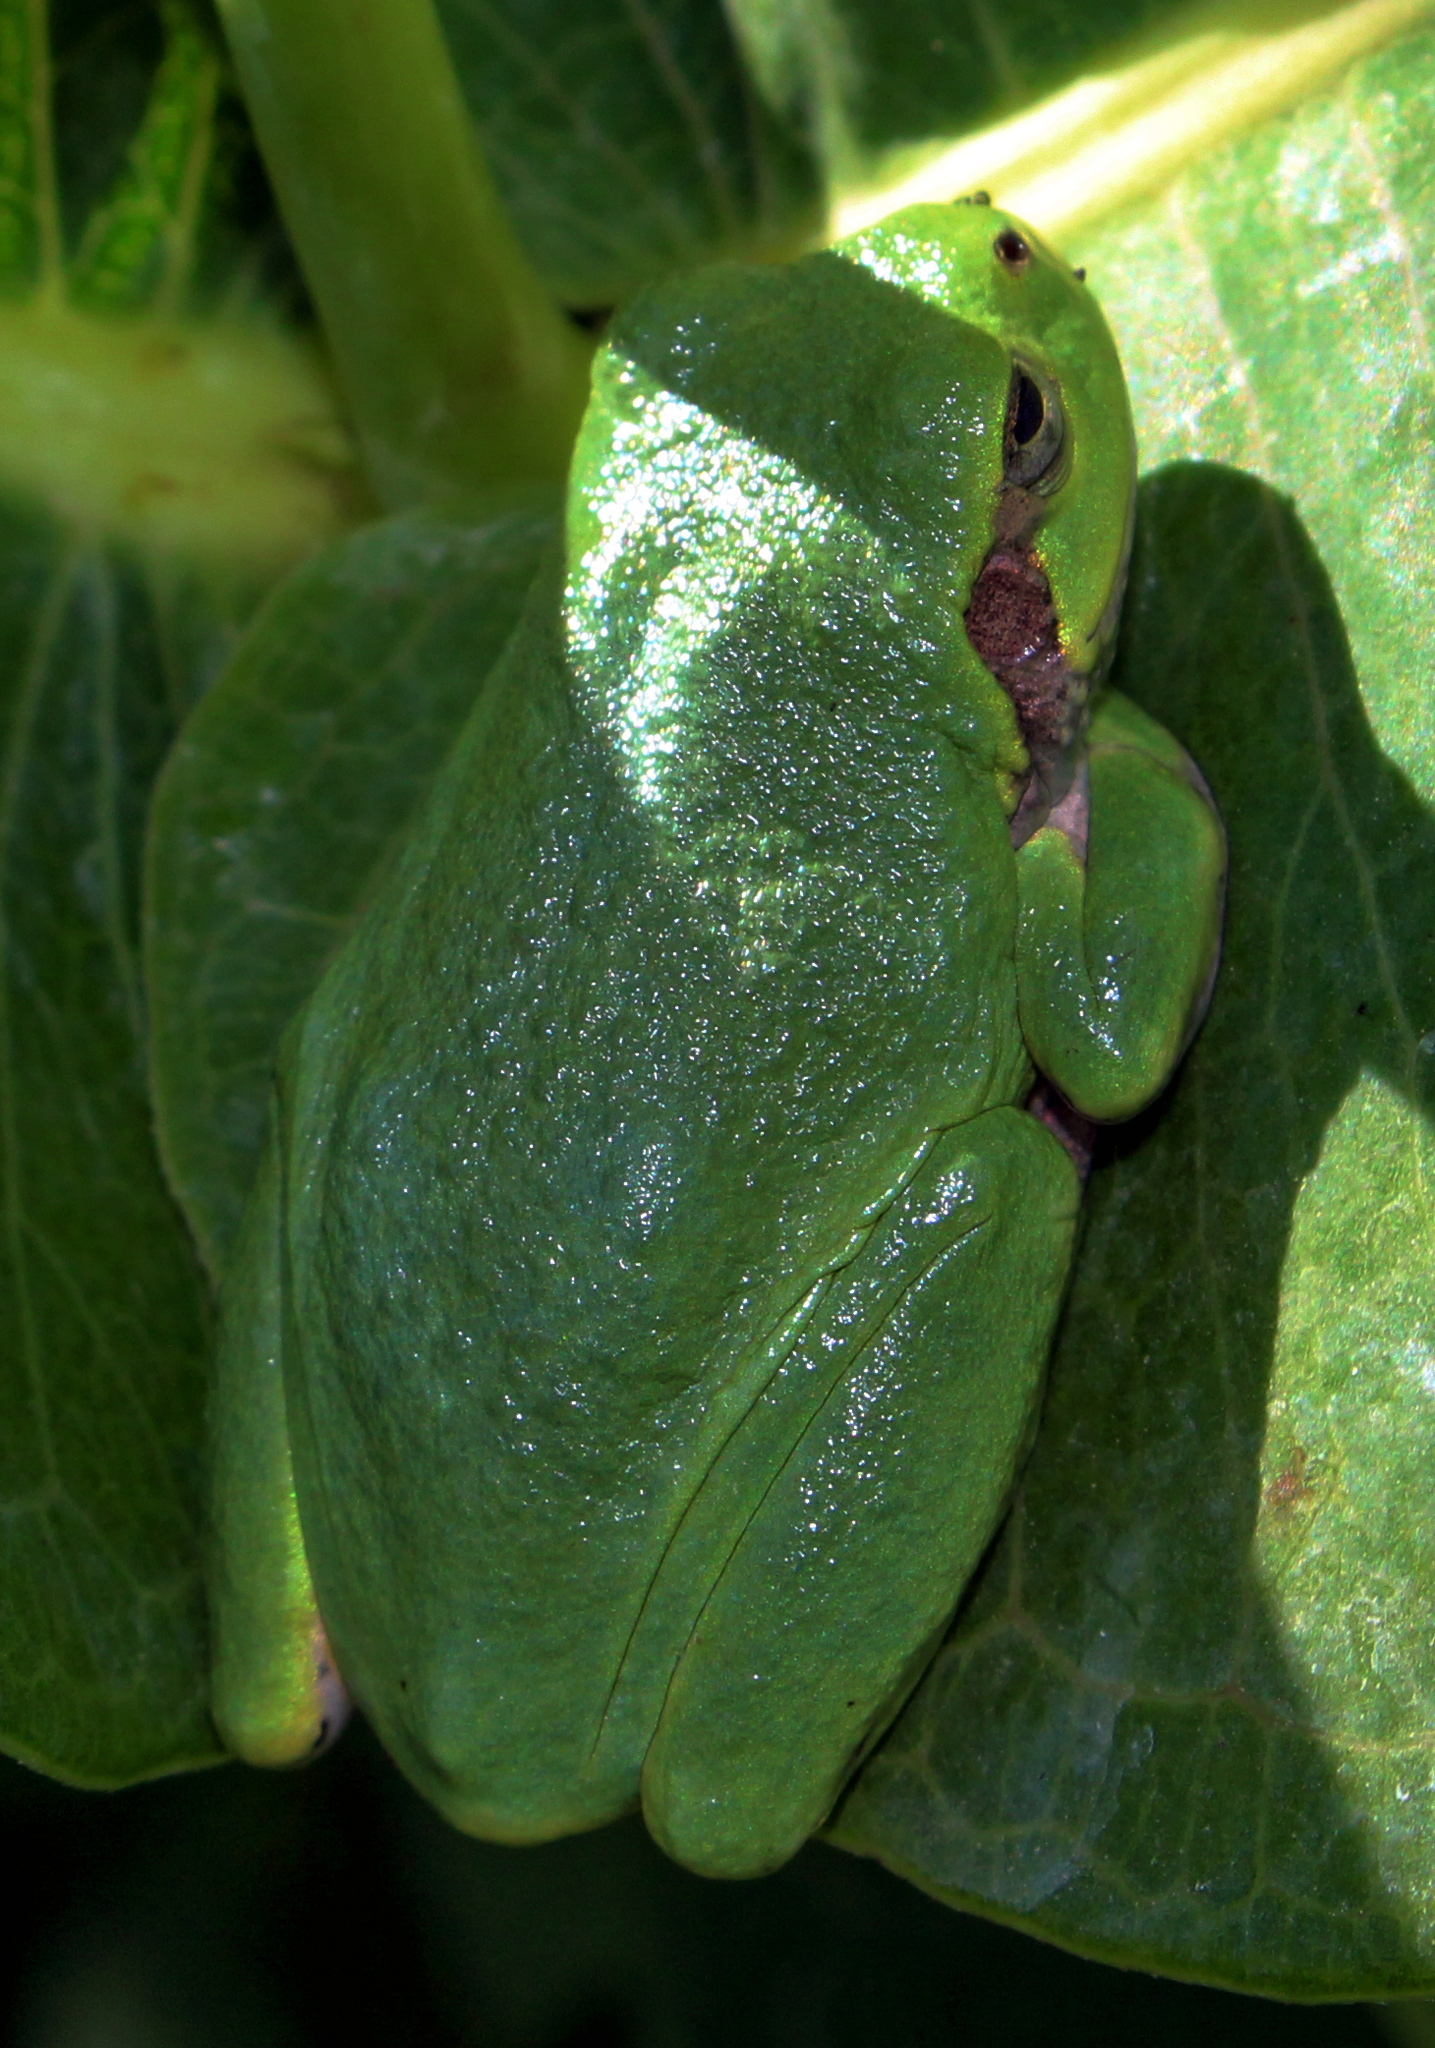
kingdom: Animalia
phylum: Chordata
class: Amphibia
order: Anura
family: Hylidae
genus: Hyla
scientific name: Hyla
